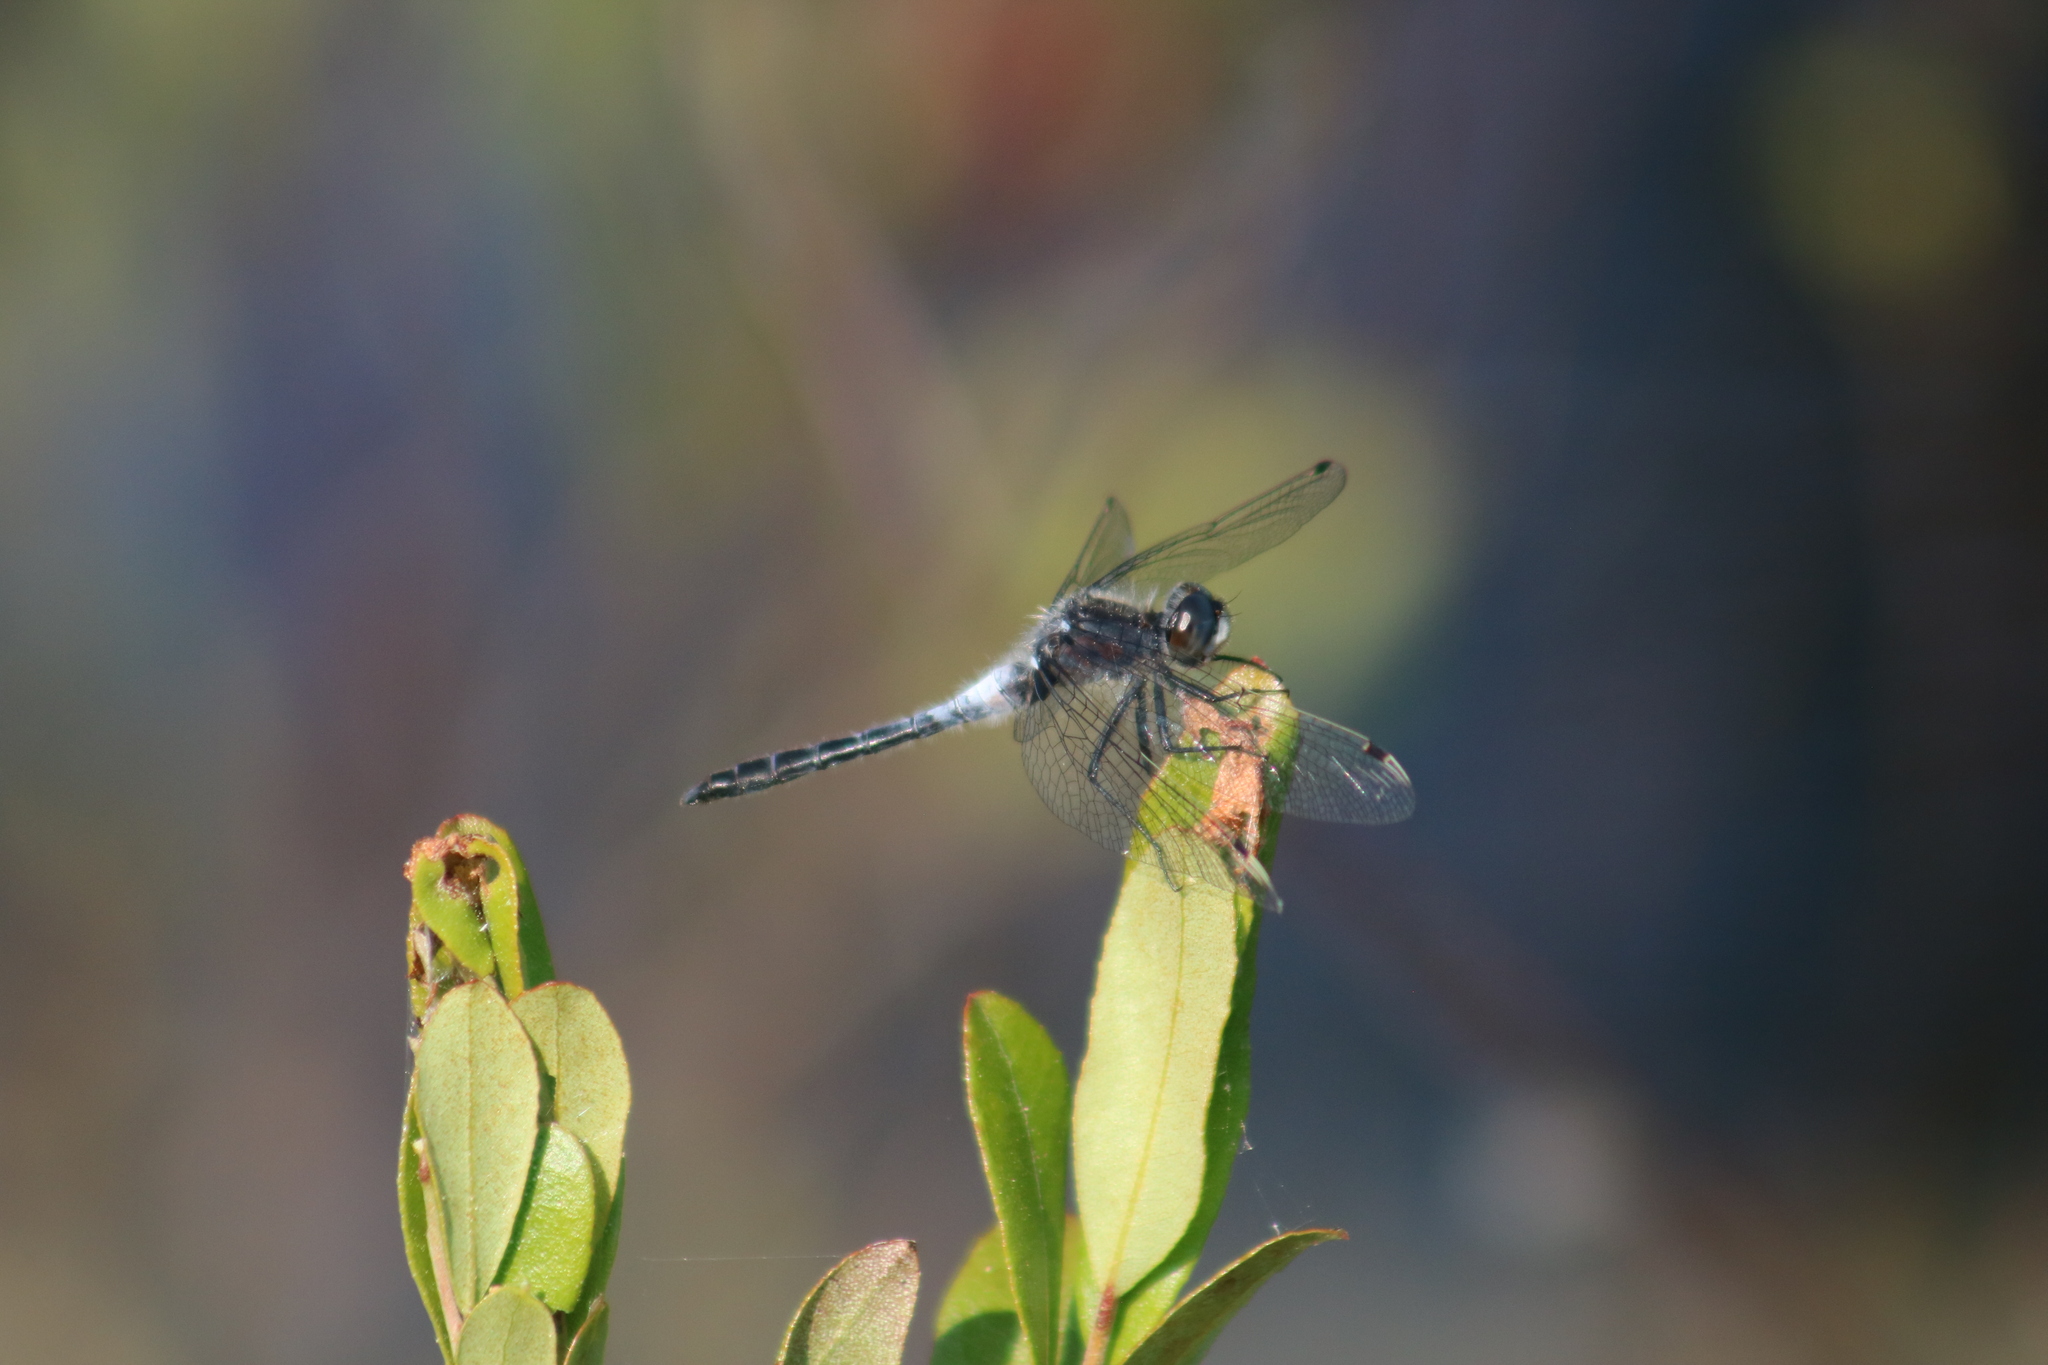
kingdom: Animalia
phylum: Arthropoda
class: Insecta
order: Odonata
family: Libellulidae
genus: Leucorrhinia
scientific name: Leucorrhinia frigida
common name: Frosted whiteface
